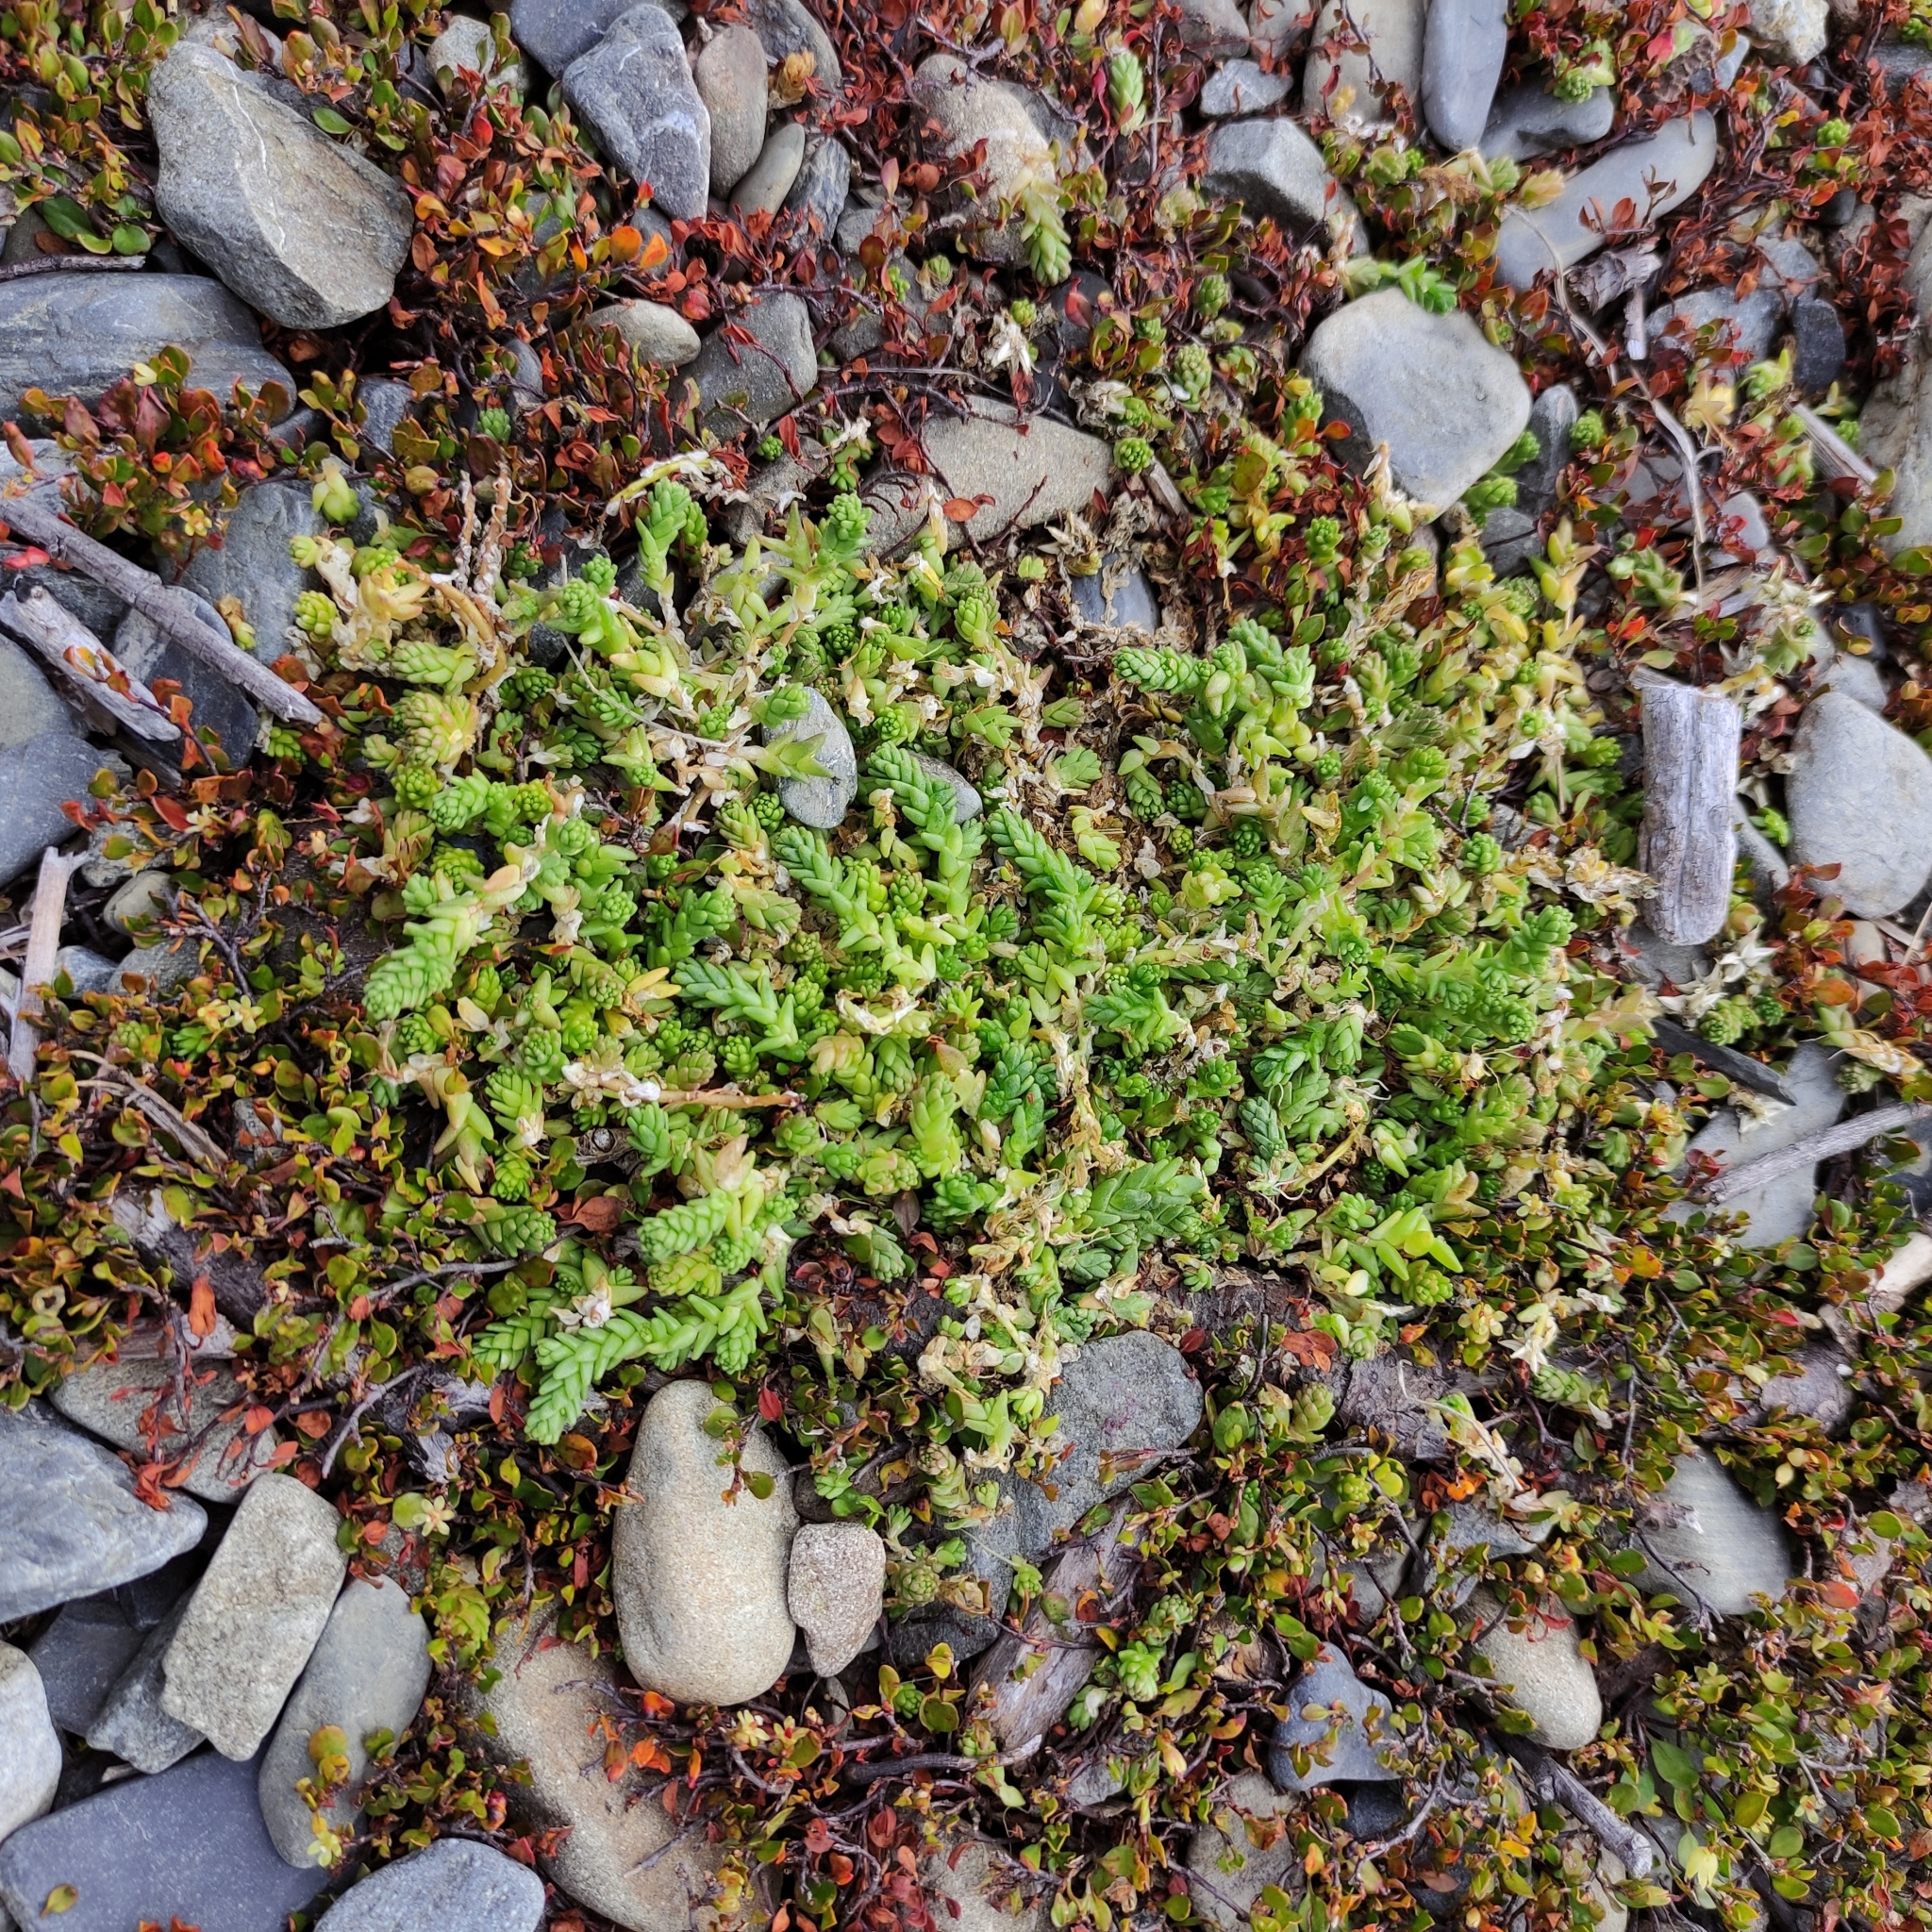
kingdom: Plantae
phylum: Tracheophyta
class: Magnoliopsida
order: Saxifragales
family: Crassulaceae
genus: Sedum
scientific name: Sedum acre
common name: Biting stonecrop
